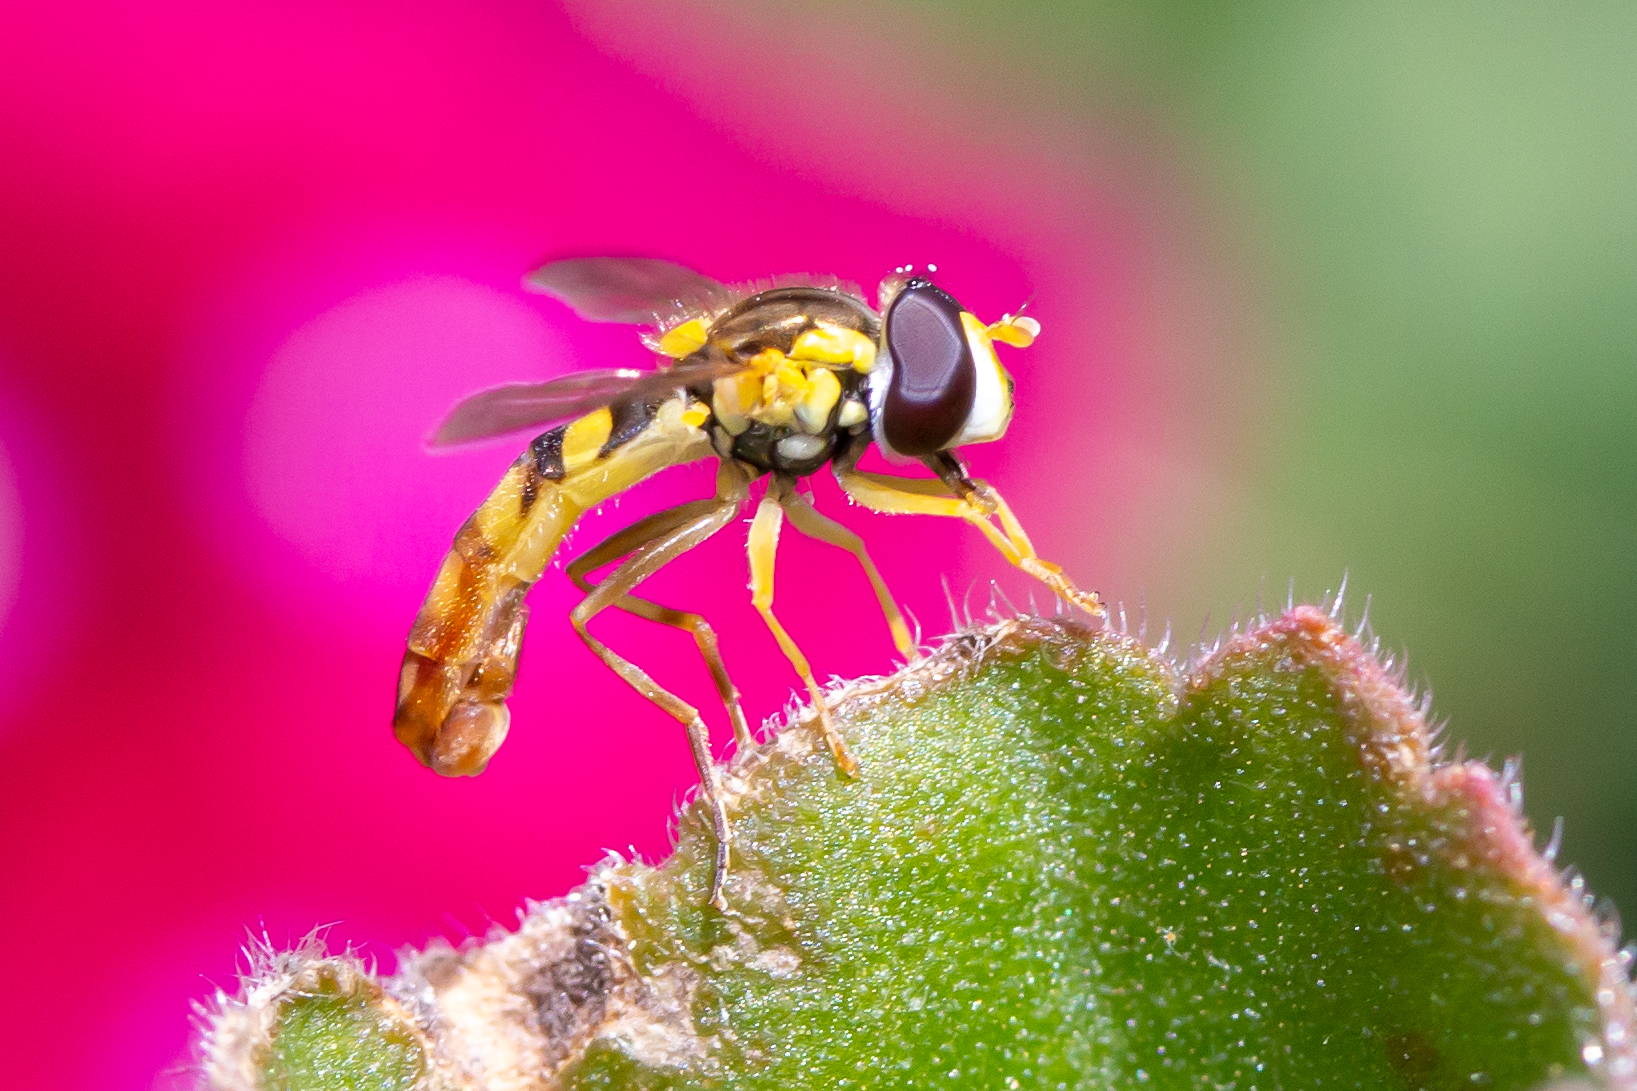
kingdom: Animalia
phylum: Arthropoda
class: Insecta
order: Diptera
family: Syrphidae
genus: Sphaerophoria
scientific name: Sphaerophoria contigua
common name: Tufted globetail
